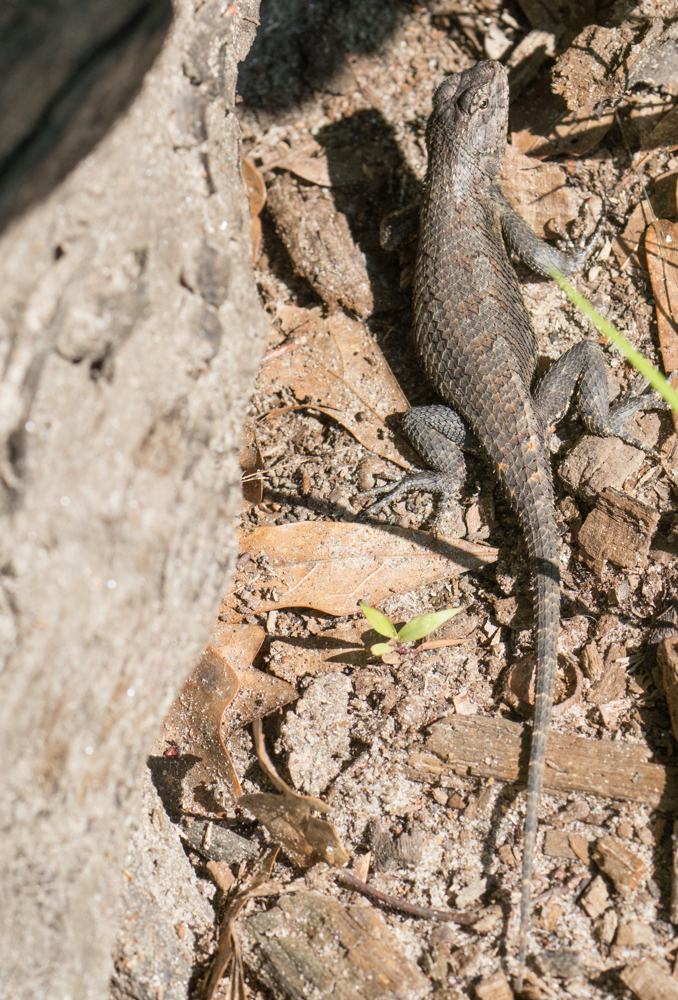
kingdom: Animalia
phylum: Chordata
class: Squamata
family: Phrynosomatidae
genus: Sceloporus
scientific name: Sceloporus undulatus
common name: Eastern fence lizard
